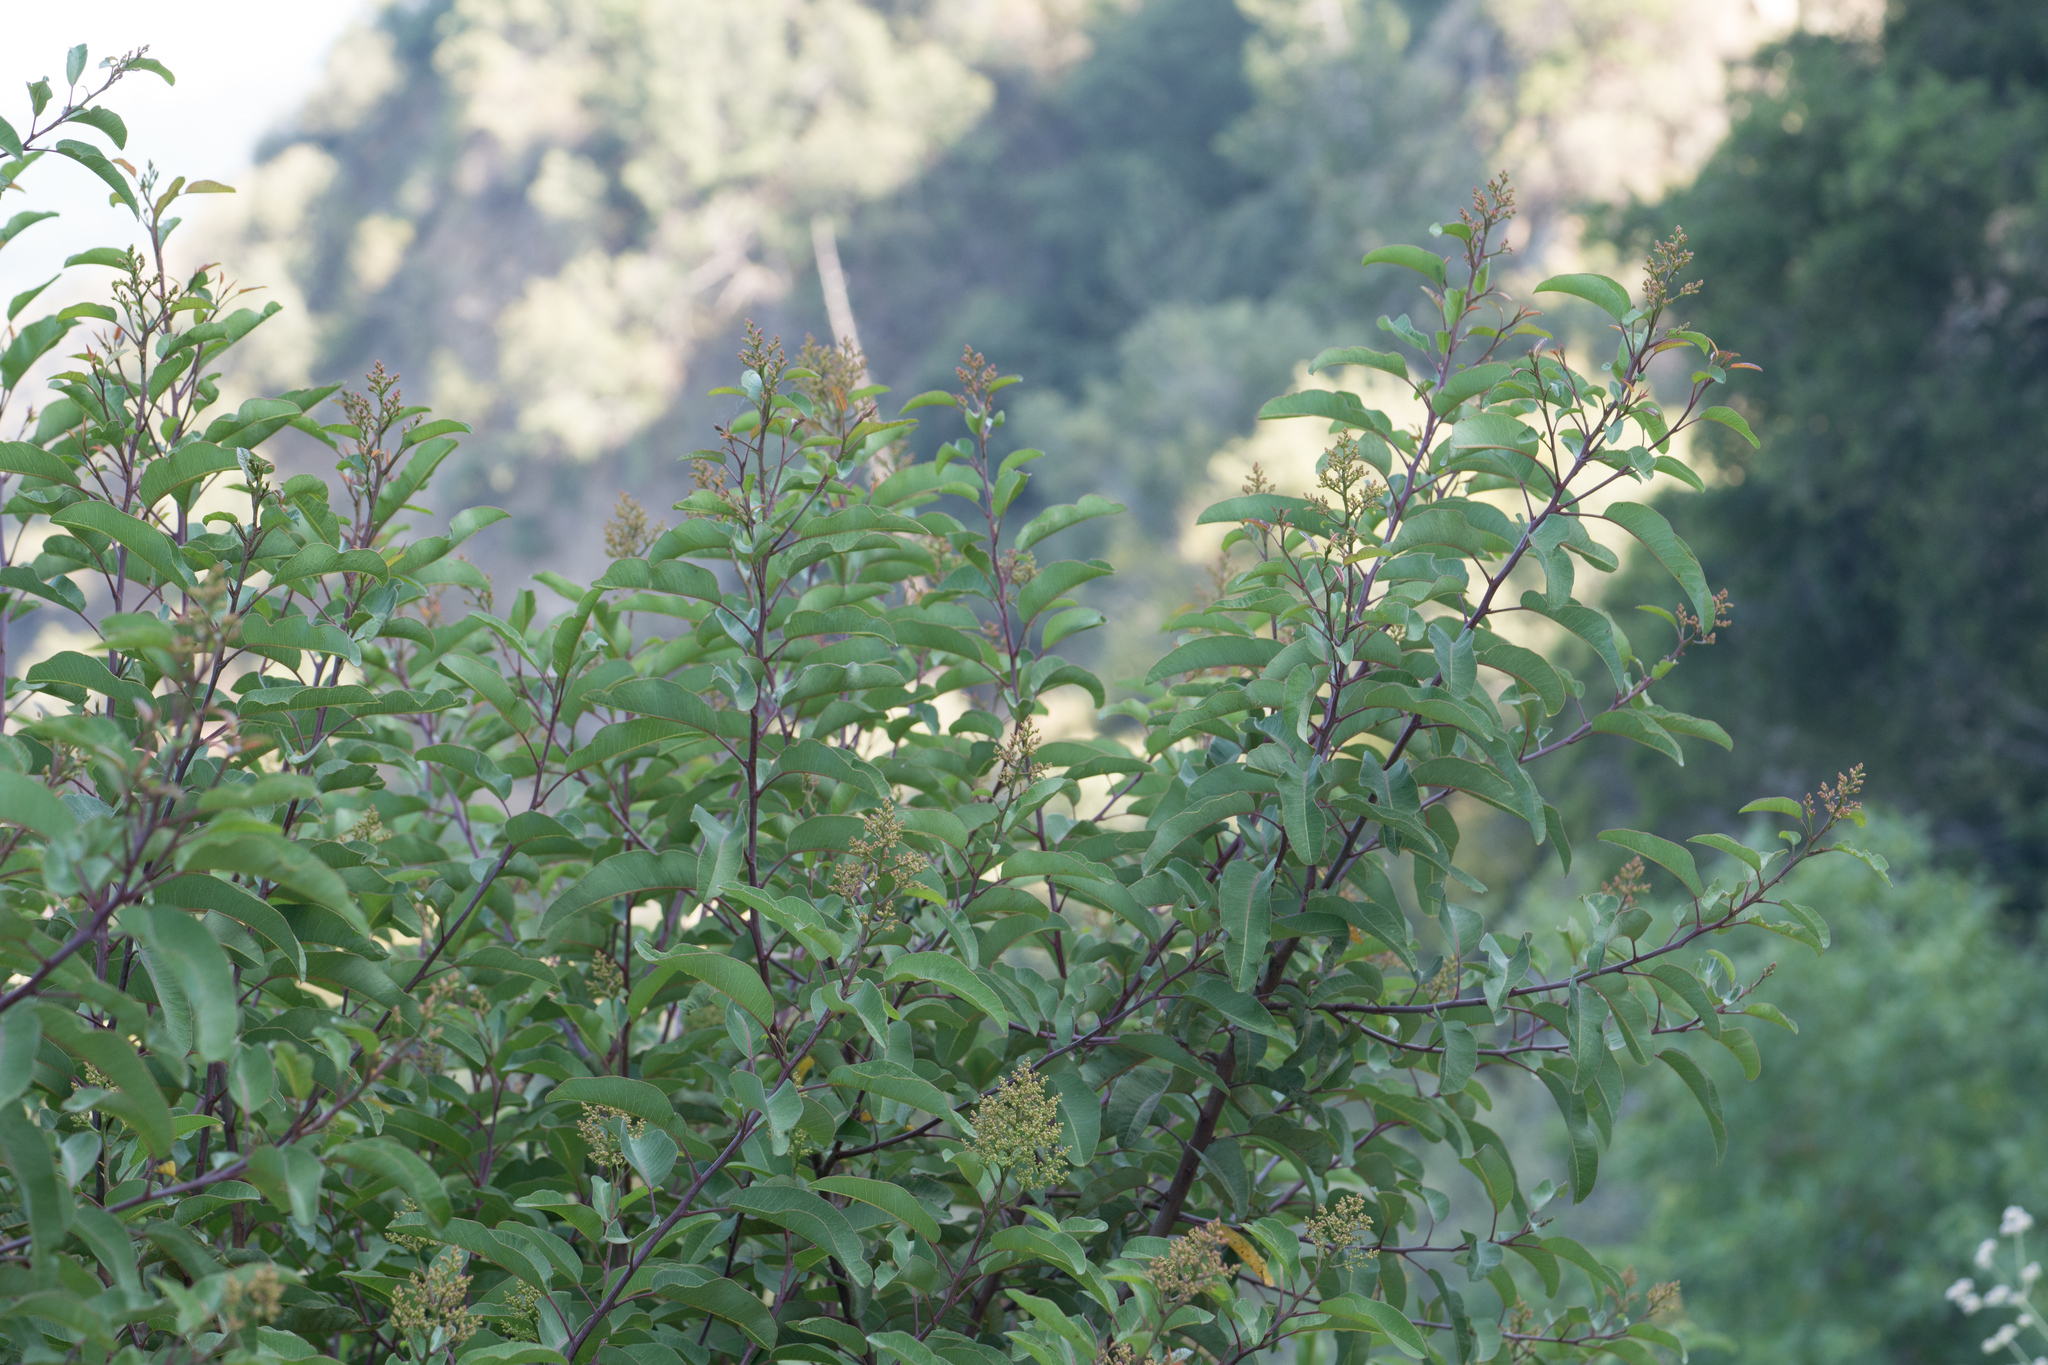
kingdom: Plantae
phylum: Tracheophyta
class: Magnoliopsida
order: Sapindales
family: Anacardiaceae
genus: Malosma
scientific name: Malosma laurina
